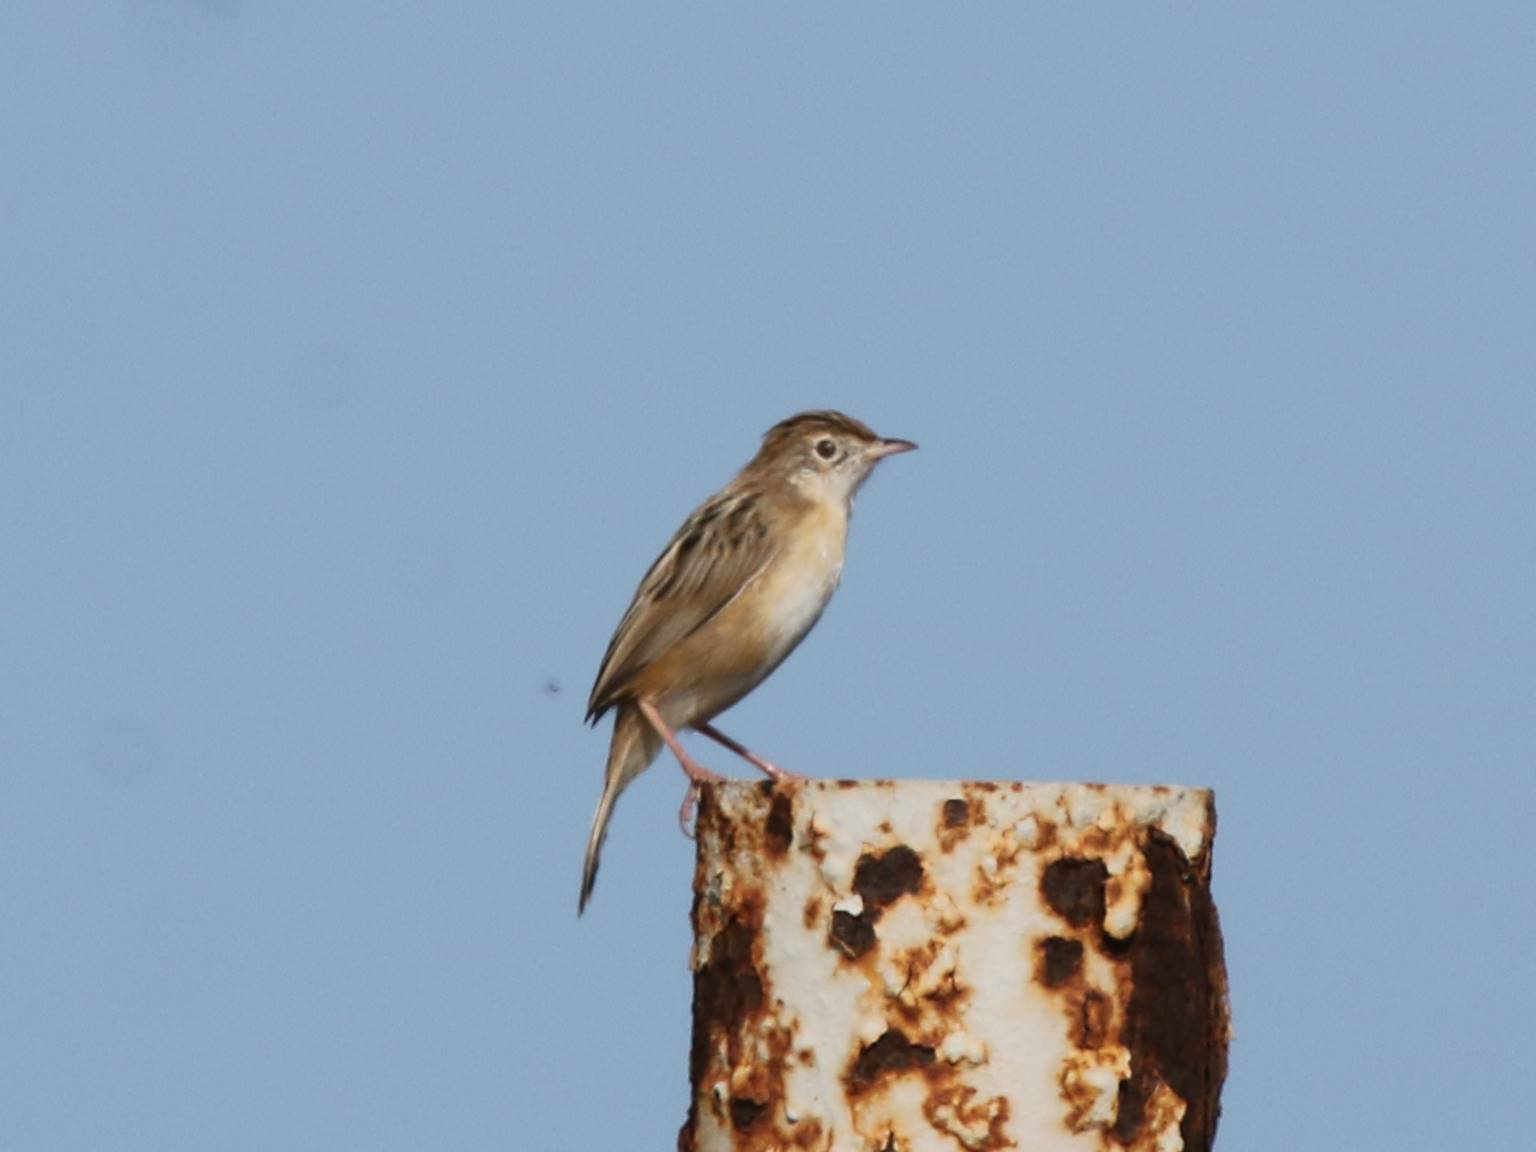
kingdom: Animalia
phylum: Chordata
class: Aves
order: Passeriformes
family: Cisticolidae
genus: Cisticola
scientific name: Cisticola juncidis
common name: Zitting cisticola
